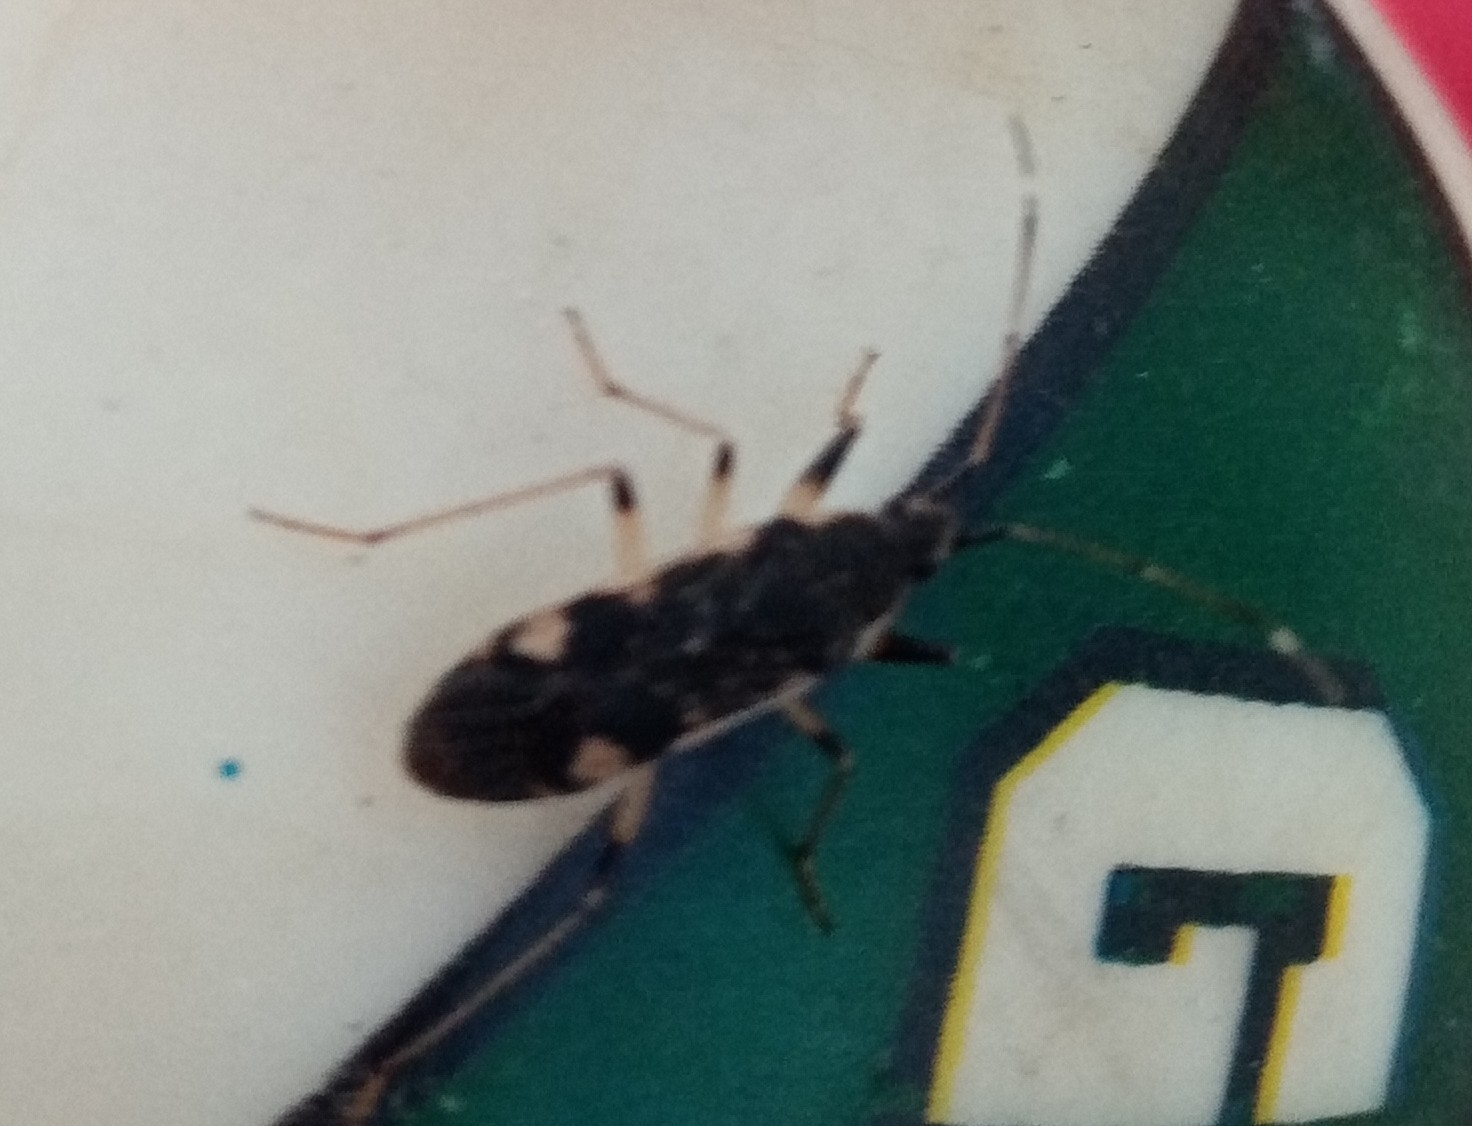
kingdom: Animalia
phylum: Arthropoda
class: Insecta
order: Hemiptera
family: Rhyparochromidae
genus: Dieuches
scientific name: Dieuches armatipes
